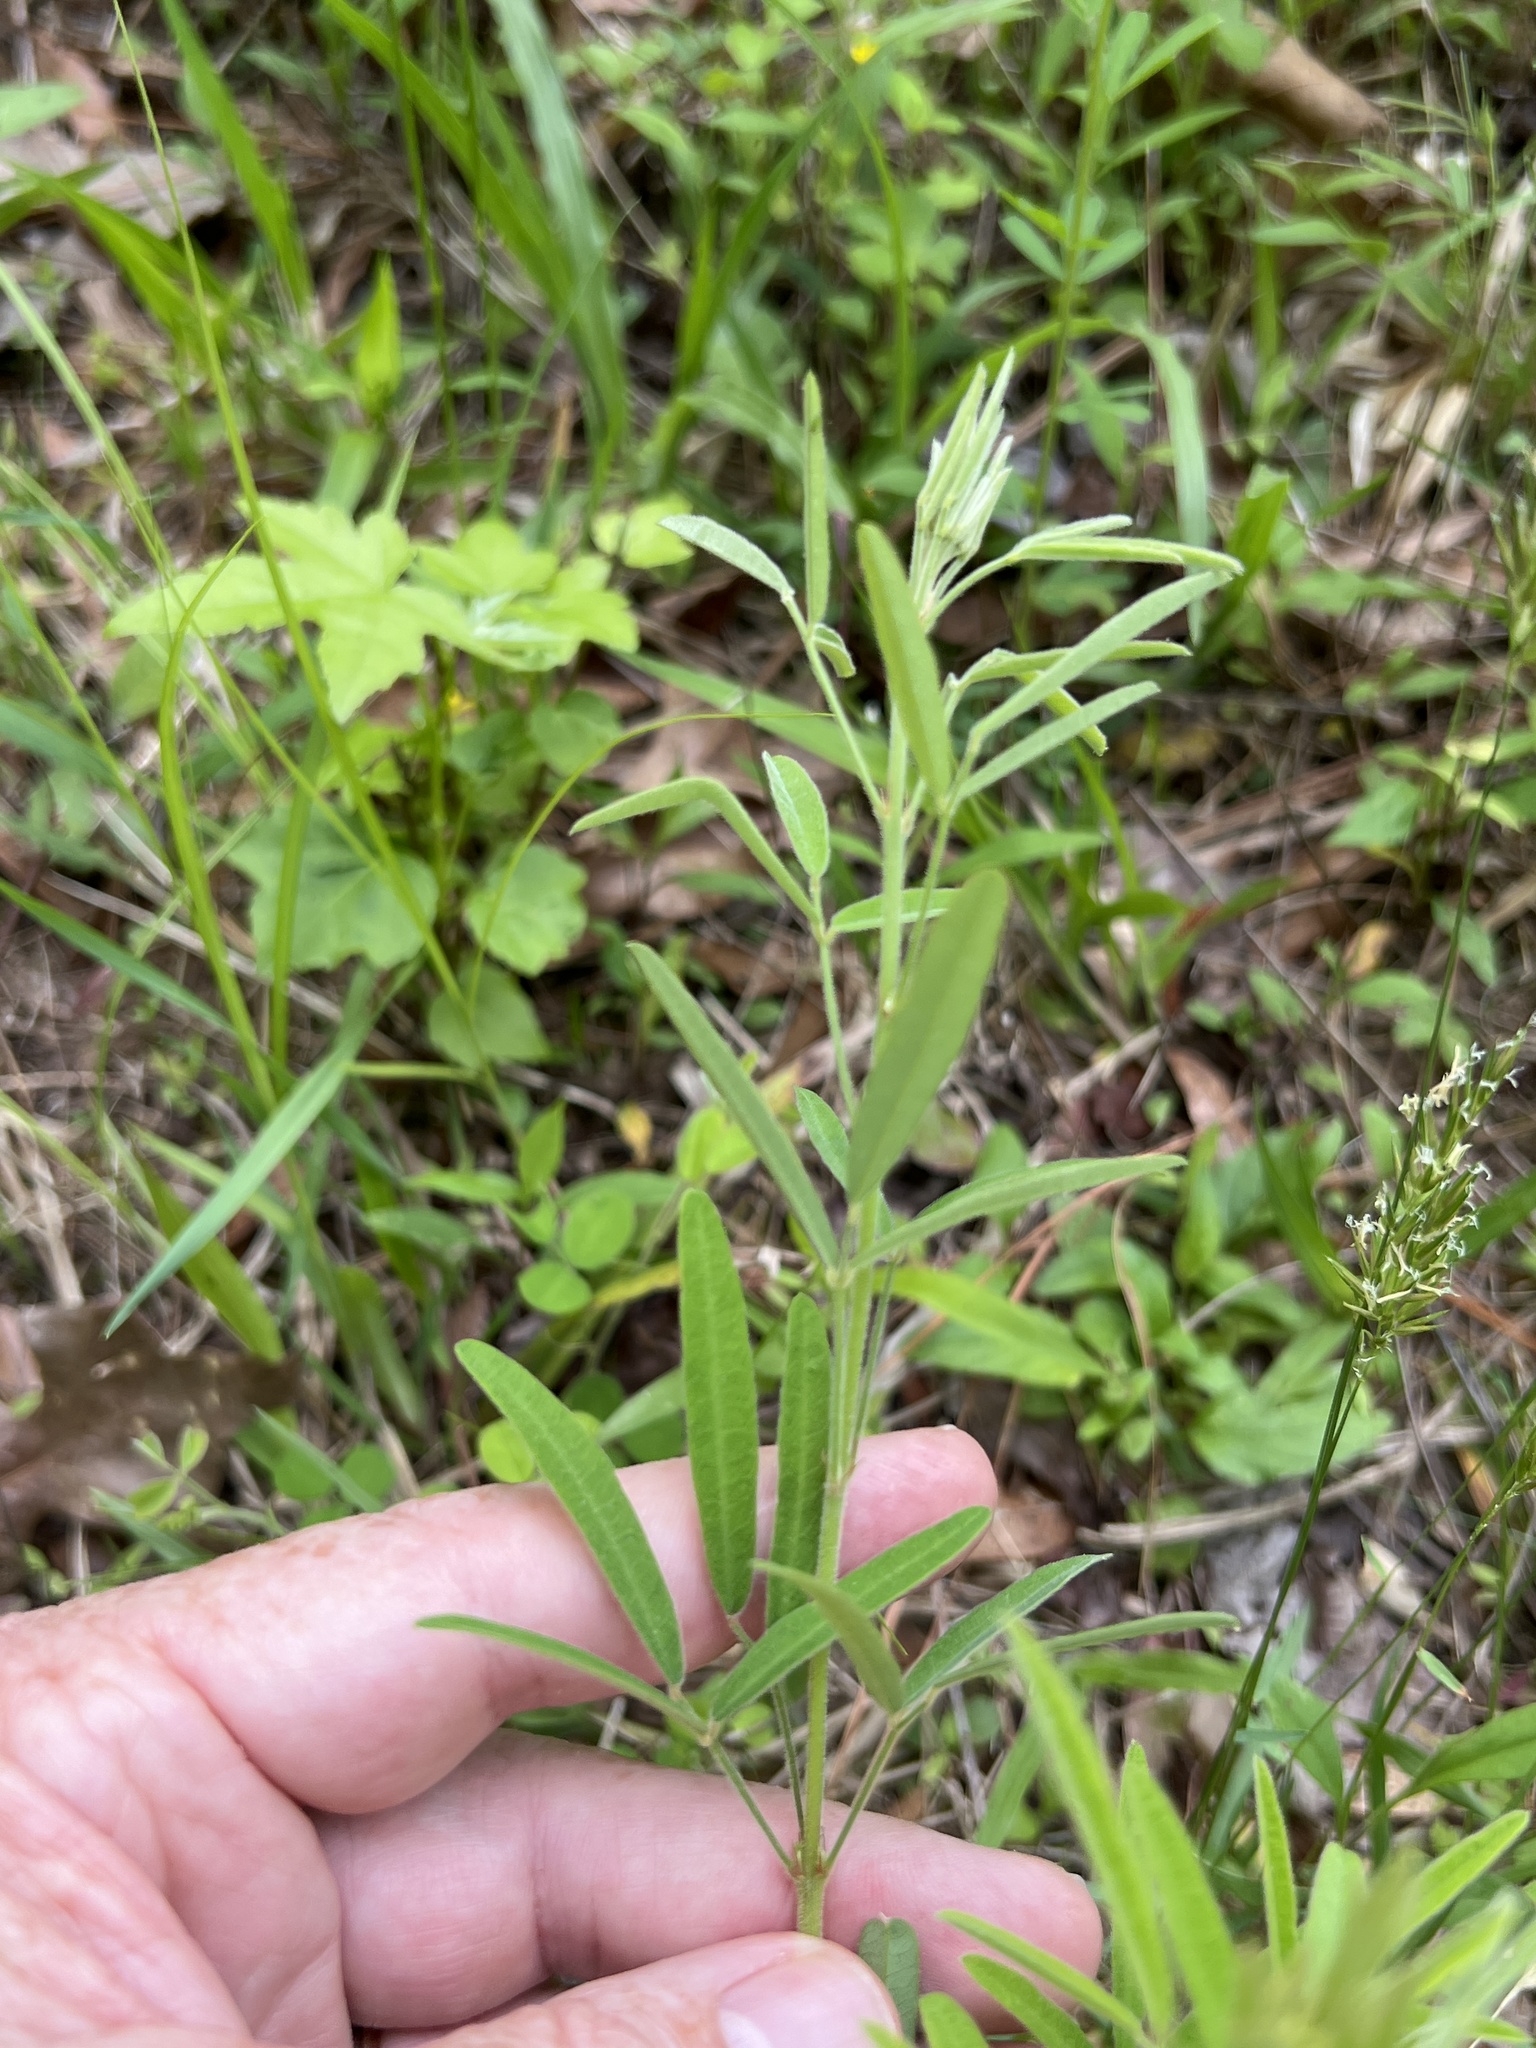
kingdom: Plantae
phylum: Tracheophyta
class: Magnoliopsida
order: Fabales
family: Fabaceae
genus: Lespedeza
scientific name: Lespedeza virginica
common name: Slender bush-clover
